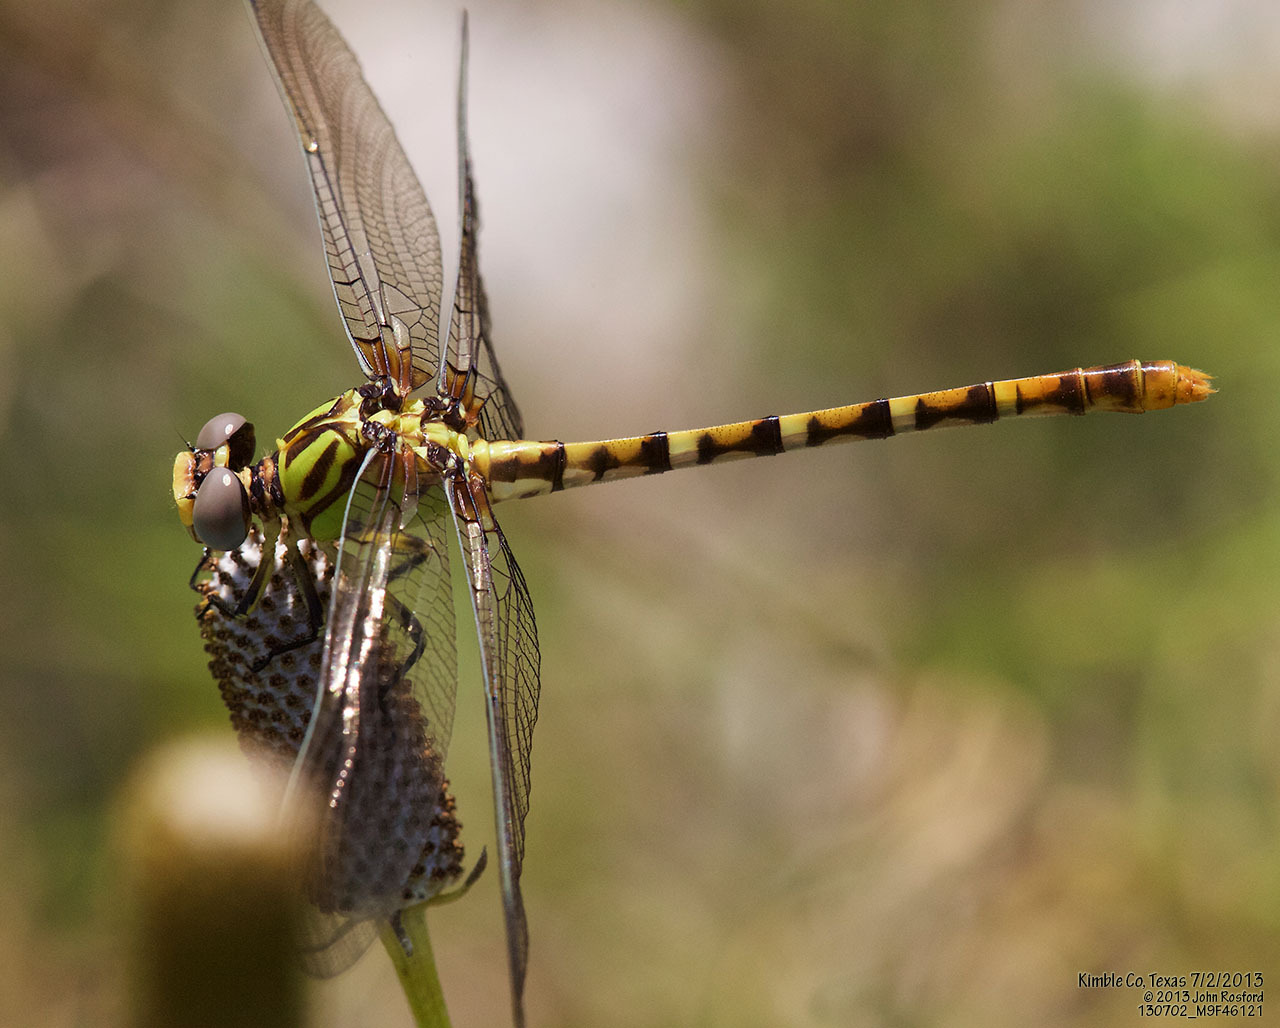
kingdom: Animalia
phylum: Arthropoda
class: Insecta
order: Odonata
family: Gomphidae
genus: Erpetogomphus
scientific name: Erpetogomphus designatus
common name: Eastern ringtail
